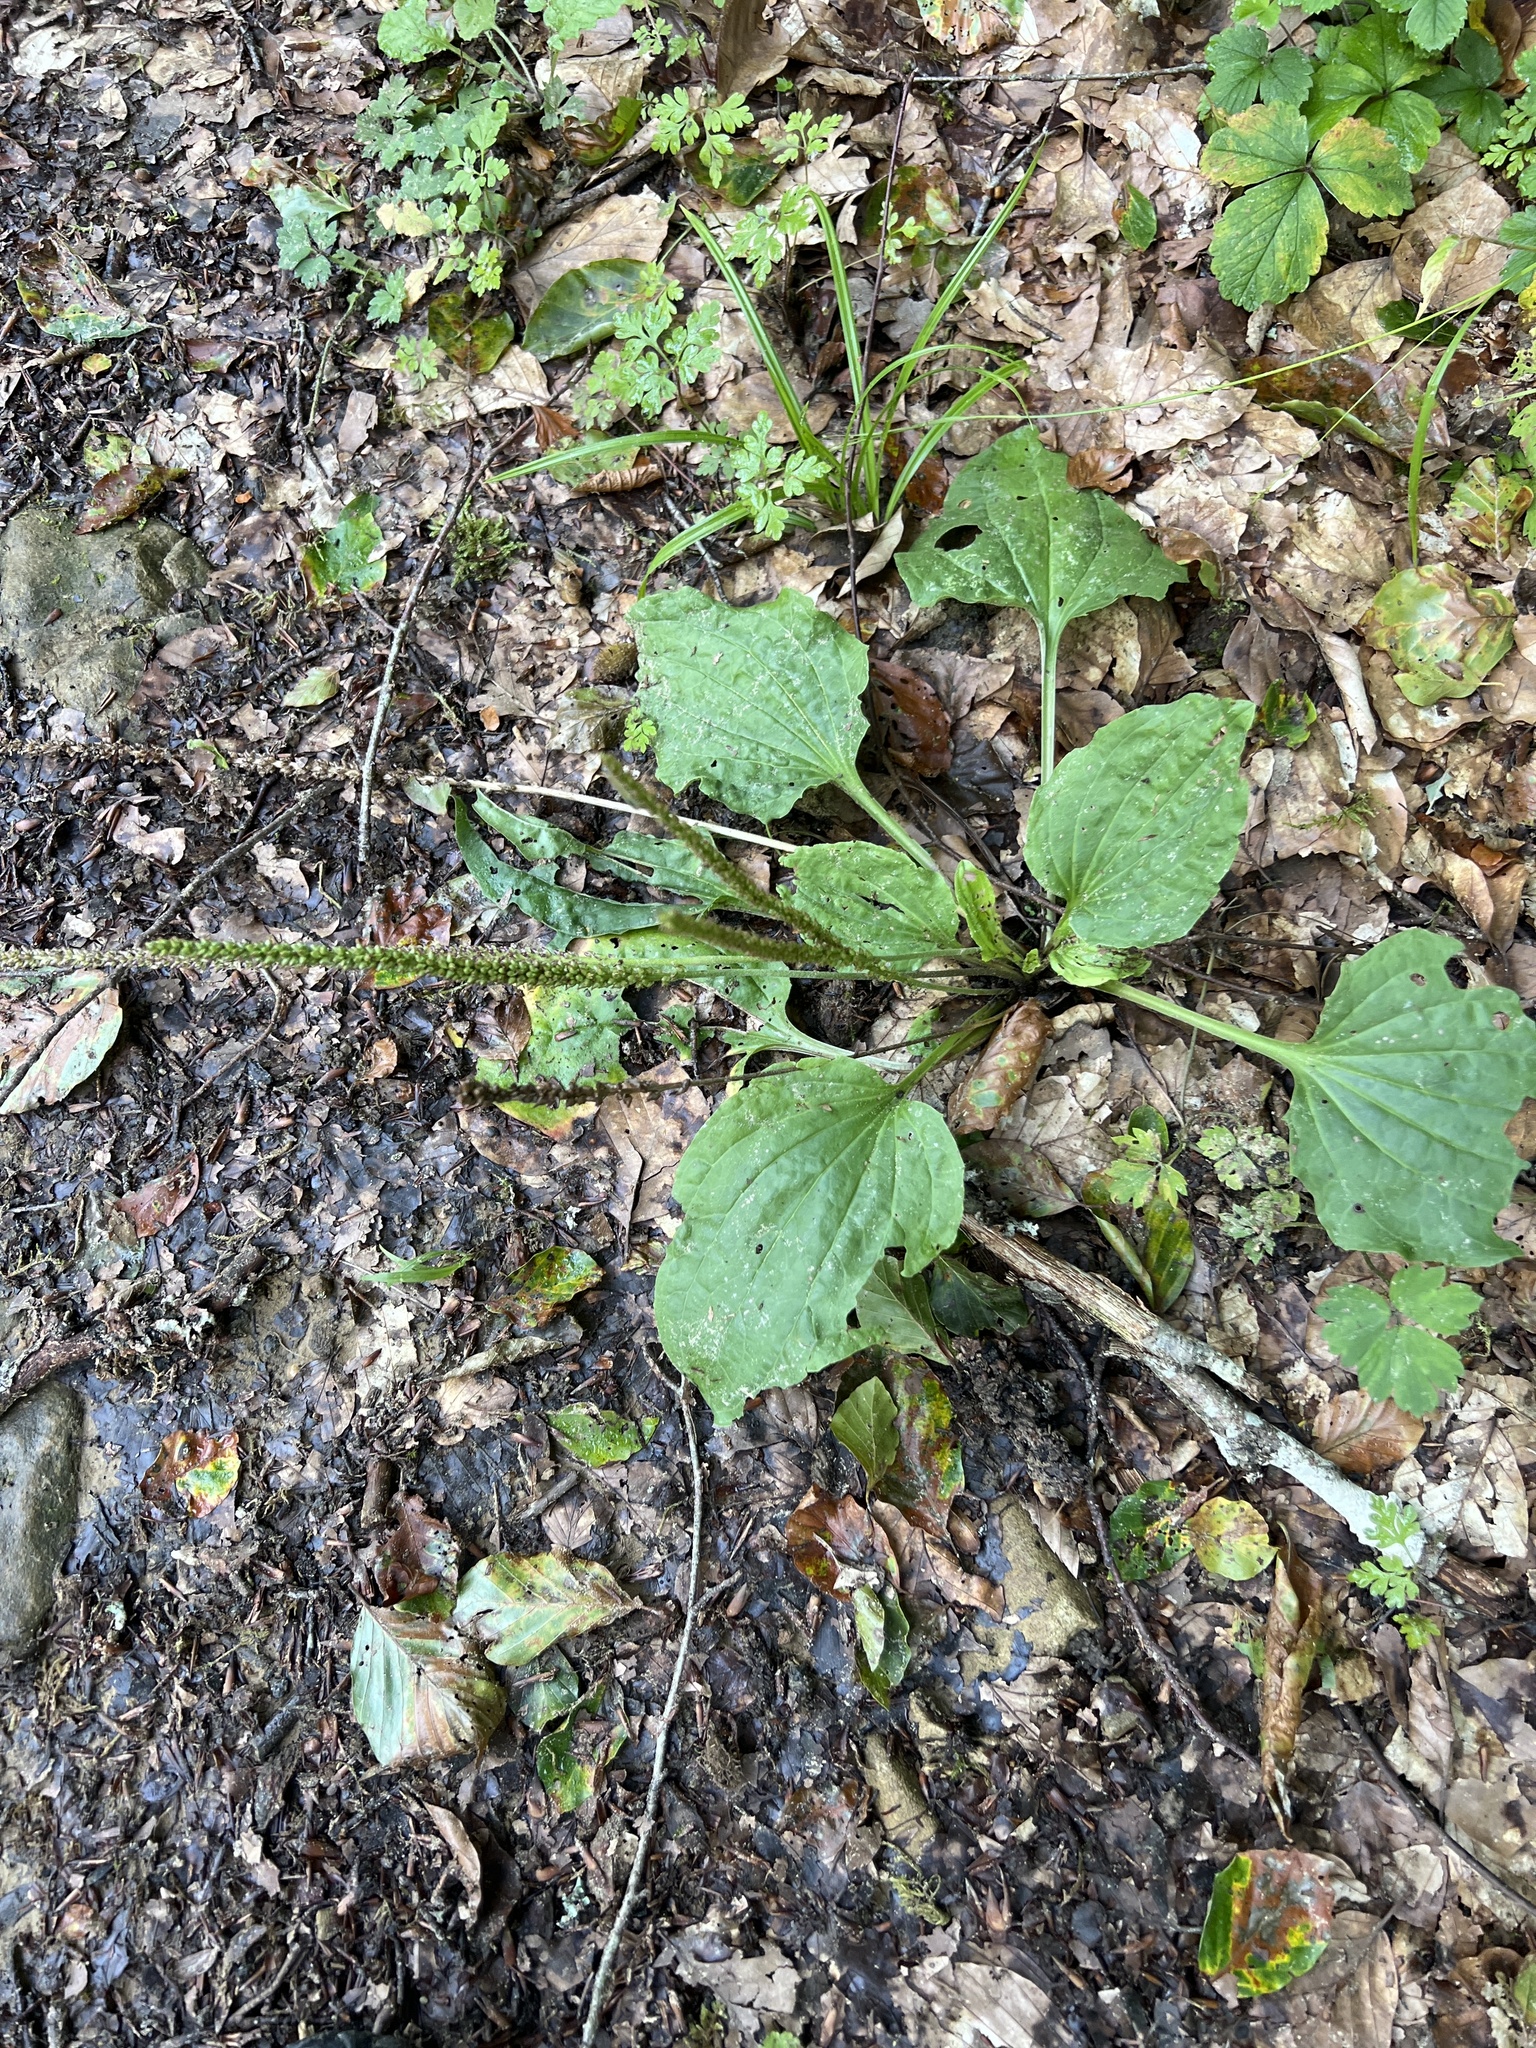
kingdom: Plantae
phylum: Tracheophyta
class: Magnoliopsida
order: Lamiales
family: Plantaginaceae
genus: Plantago
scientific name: Plantago major
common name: Common plantain
